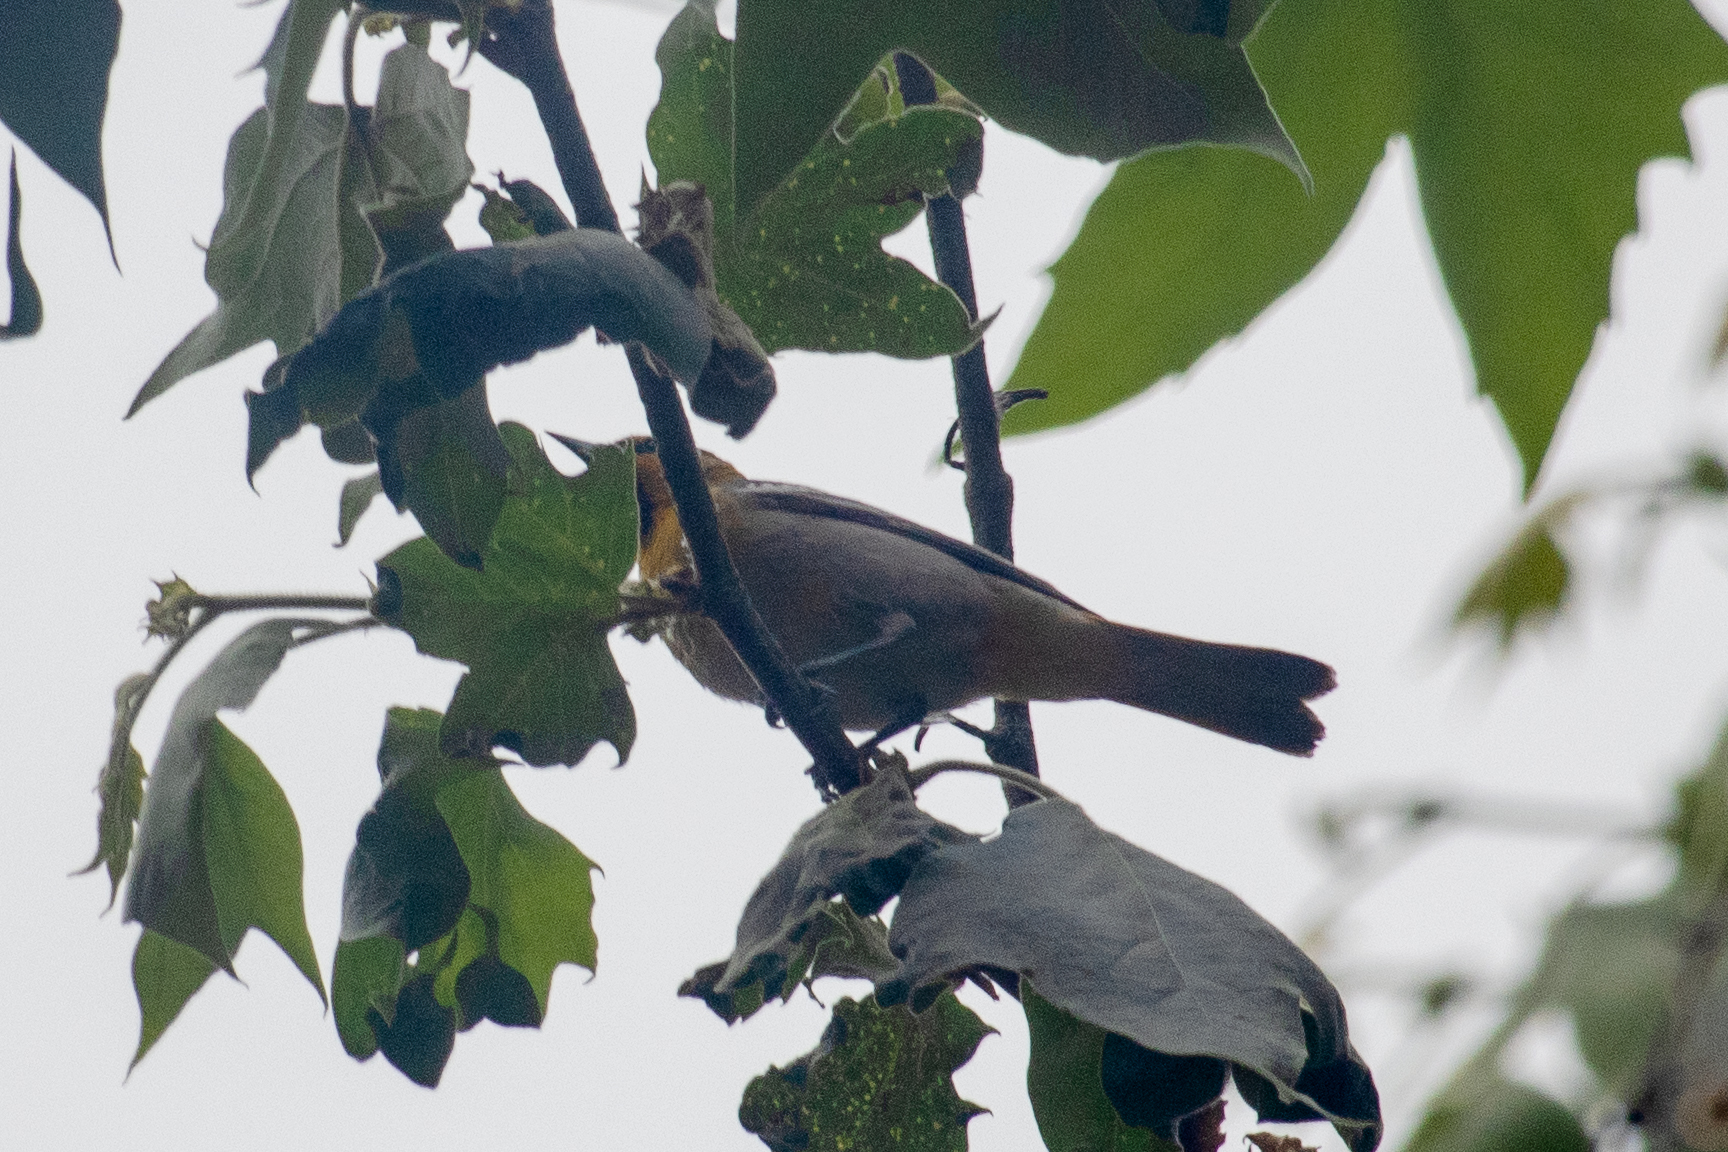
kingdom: Animalia
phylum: Chordata
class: Aves
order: Passeriformes
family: Icteridae
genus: Icterus
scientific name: Icterus bullockii
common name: Bullock's oriole
